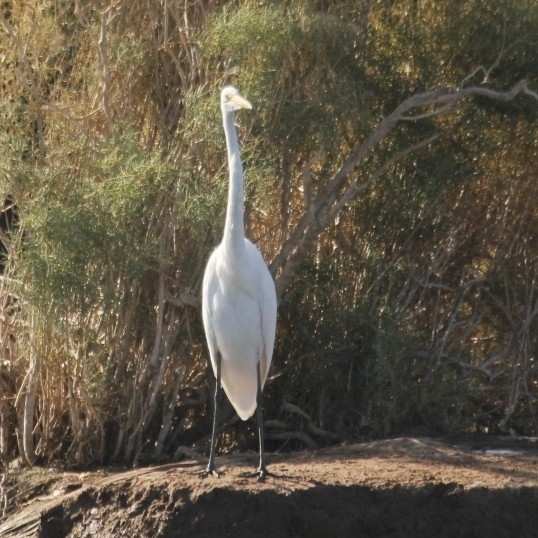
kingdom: Animalia
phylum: Chordata
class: Aves
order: Pelecaniformes
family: Ardeidae
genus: Ardea
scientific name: Ardea alba
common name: Great egret
